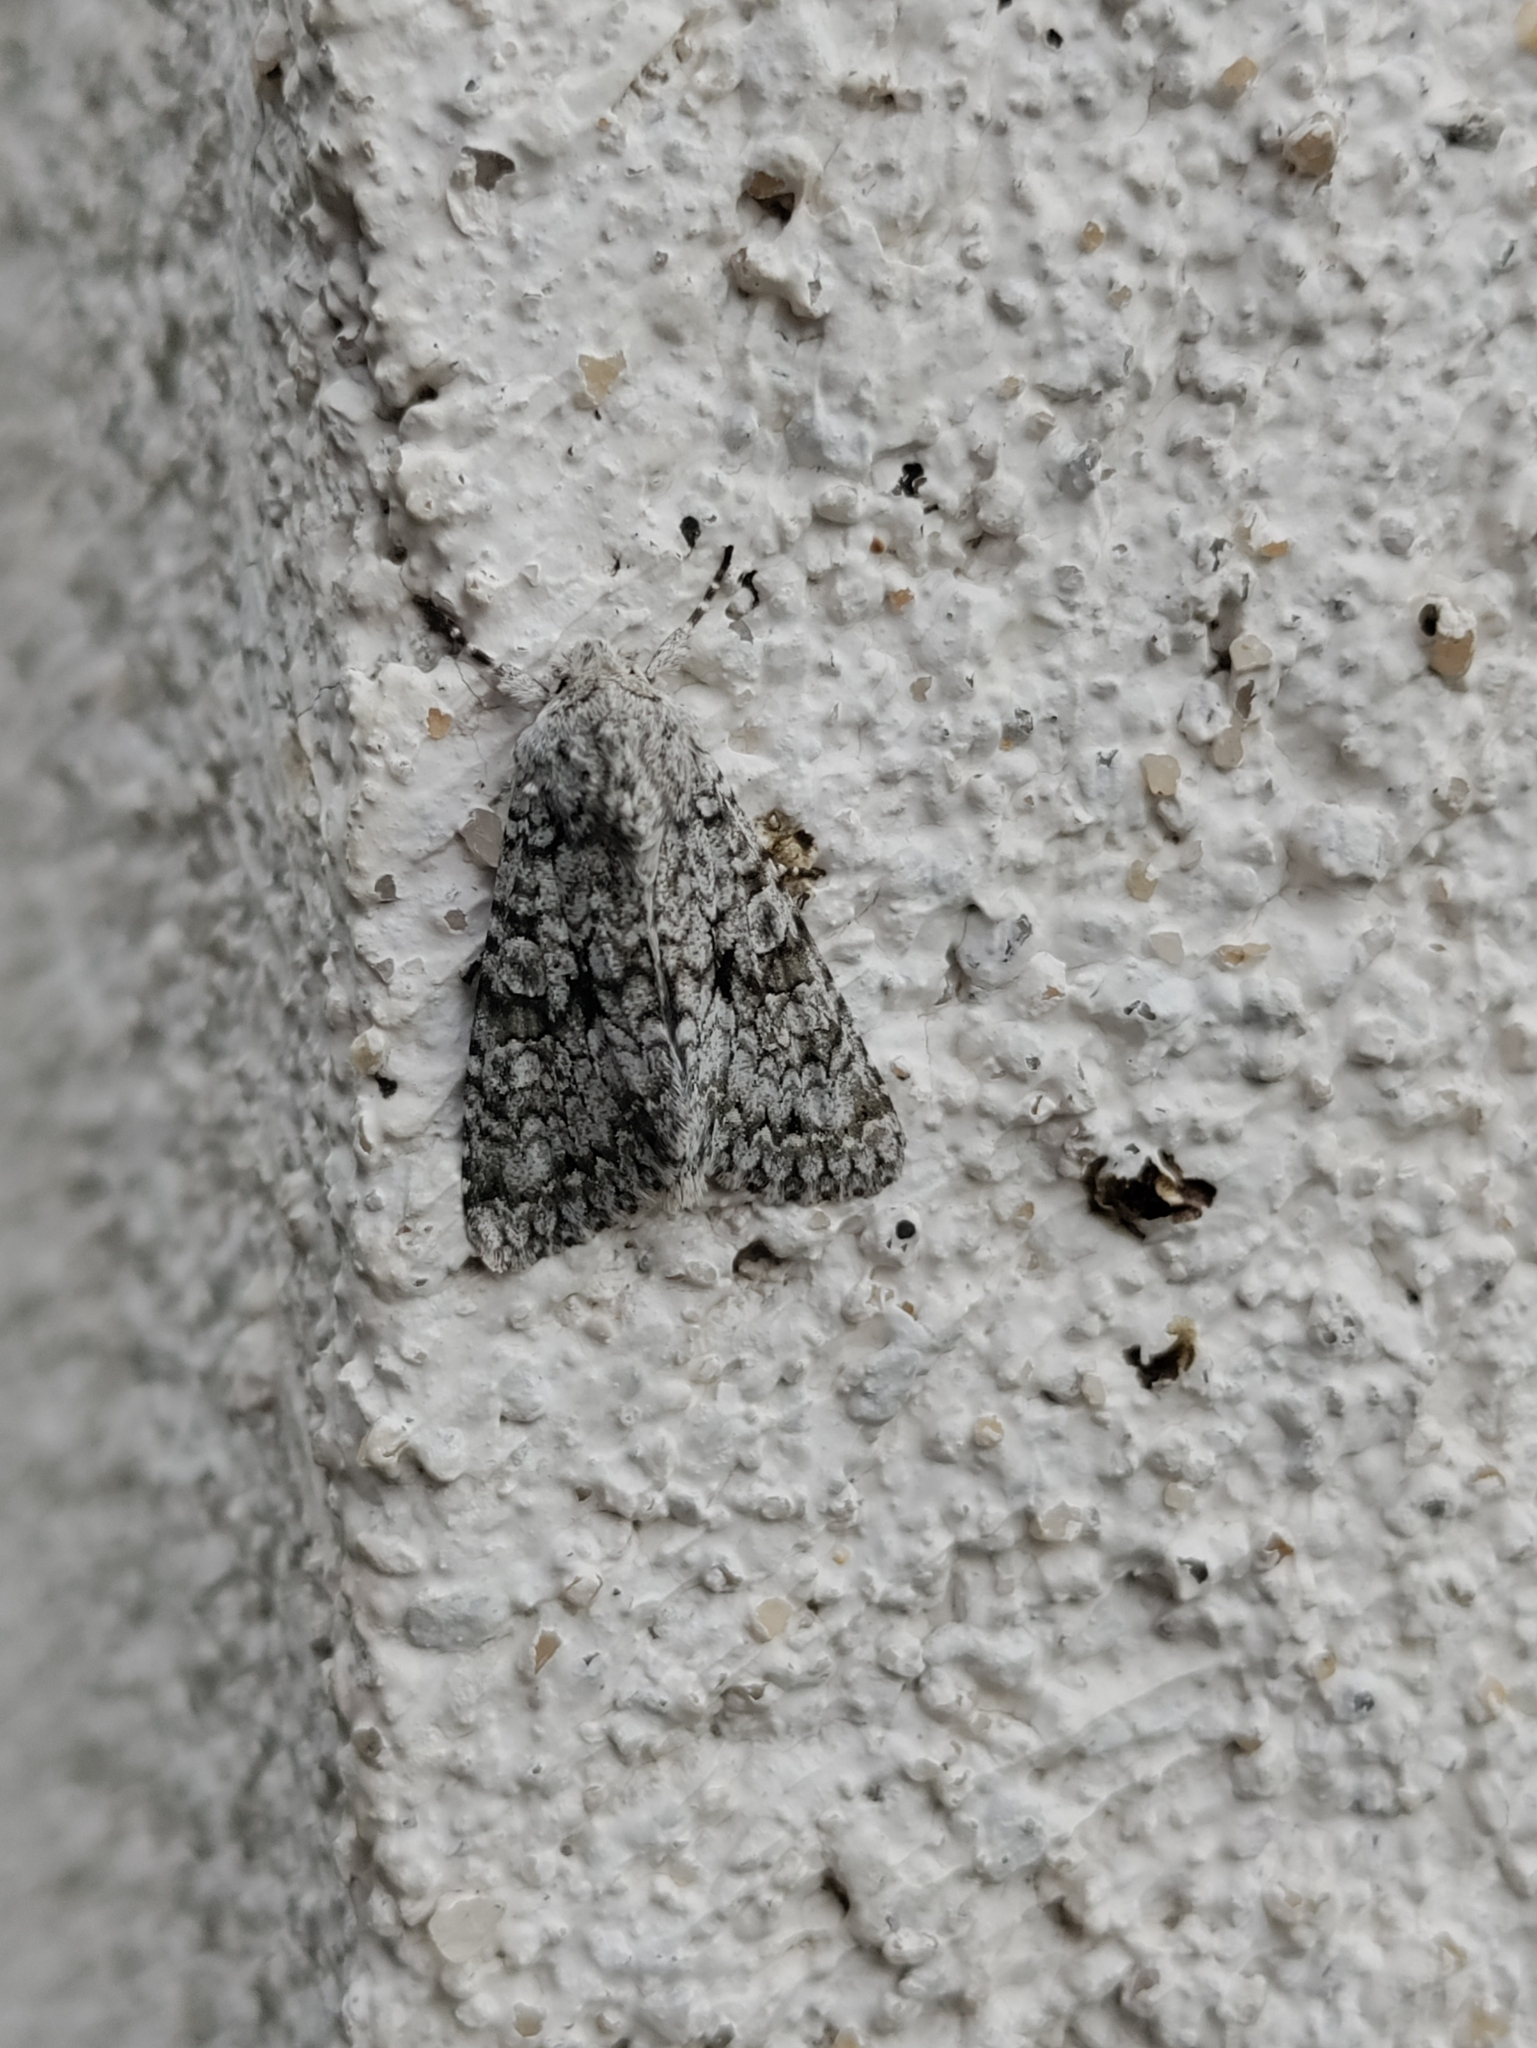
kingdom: Animalia
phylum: Arthropoda
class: Insecta
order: Lepidoptera
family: Noctuidae
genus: Antitype
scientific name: Antitype chi
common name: Grey chi
